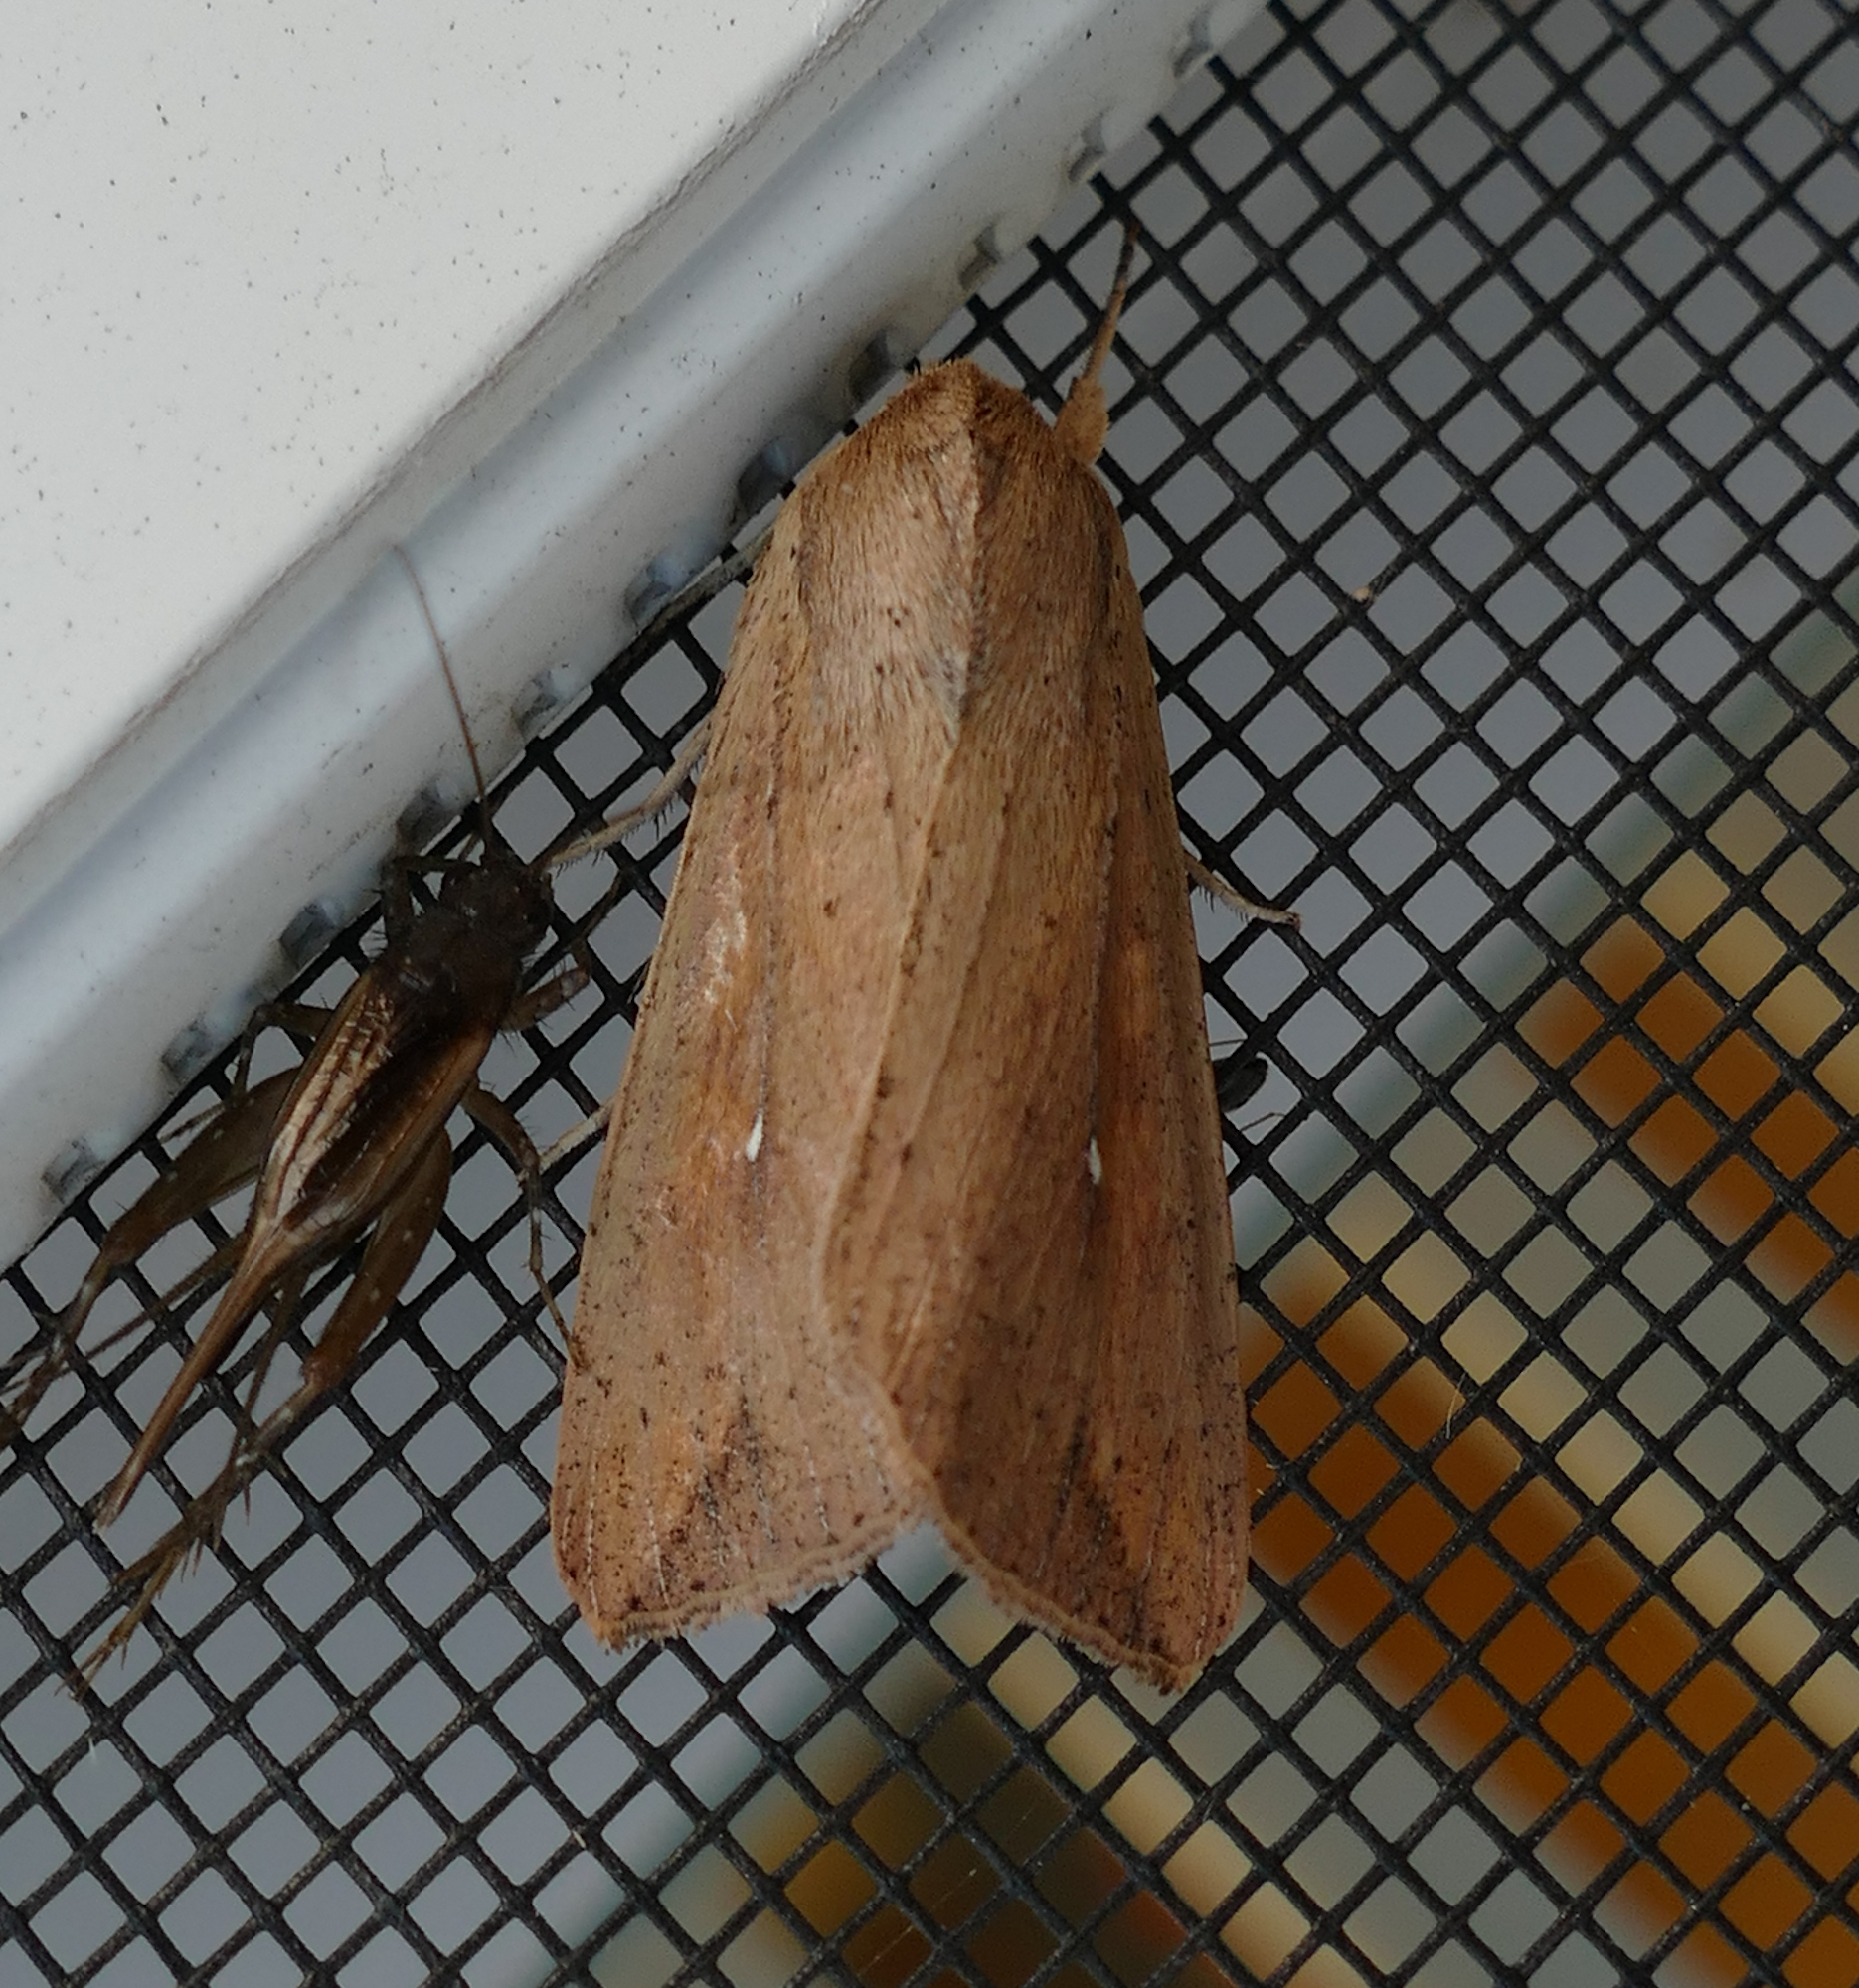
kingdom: Animalia
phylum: Arthropoda
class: Insecta
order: Lepidoptera
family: Noctuidae
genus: Mythimna
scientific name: Mythimna unipuncta
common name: White-speck
